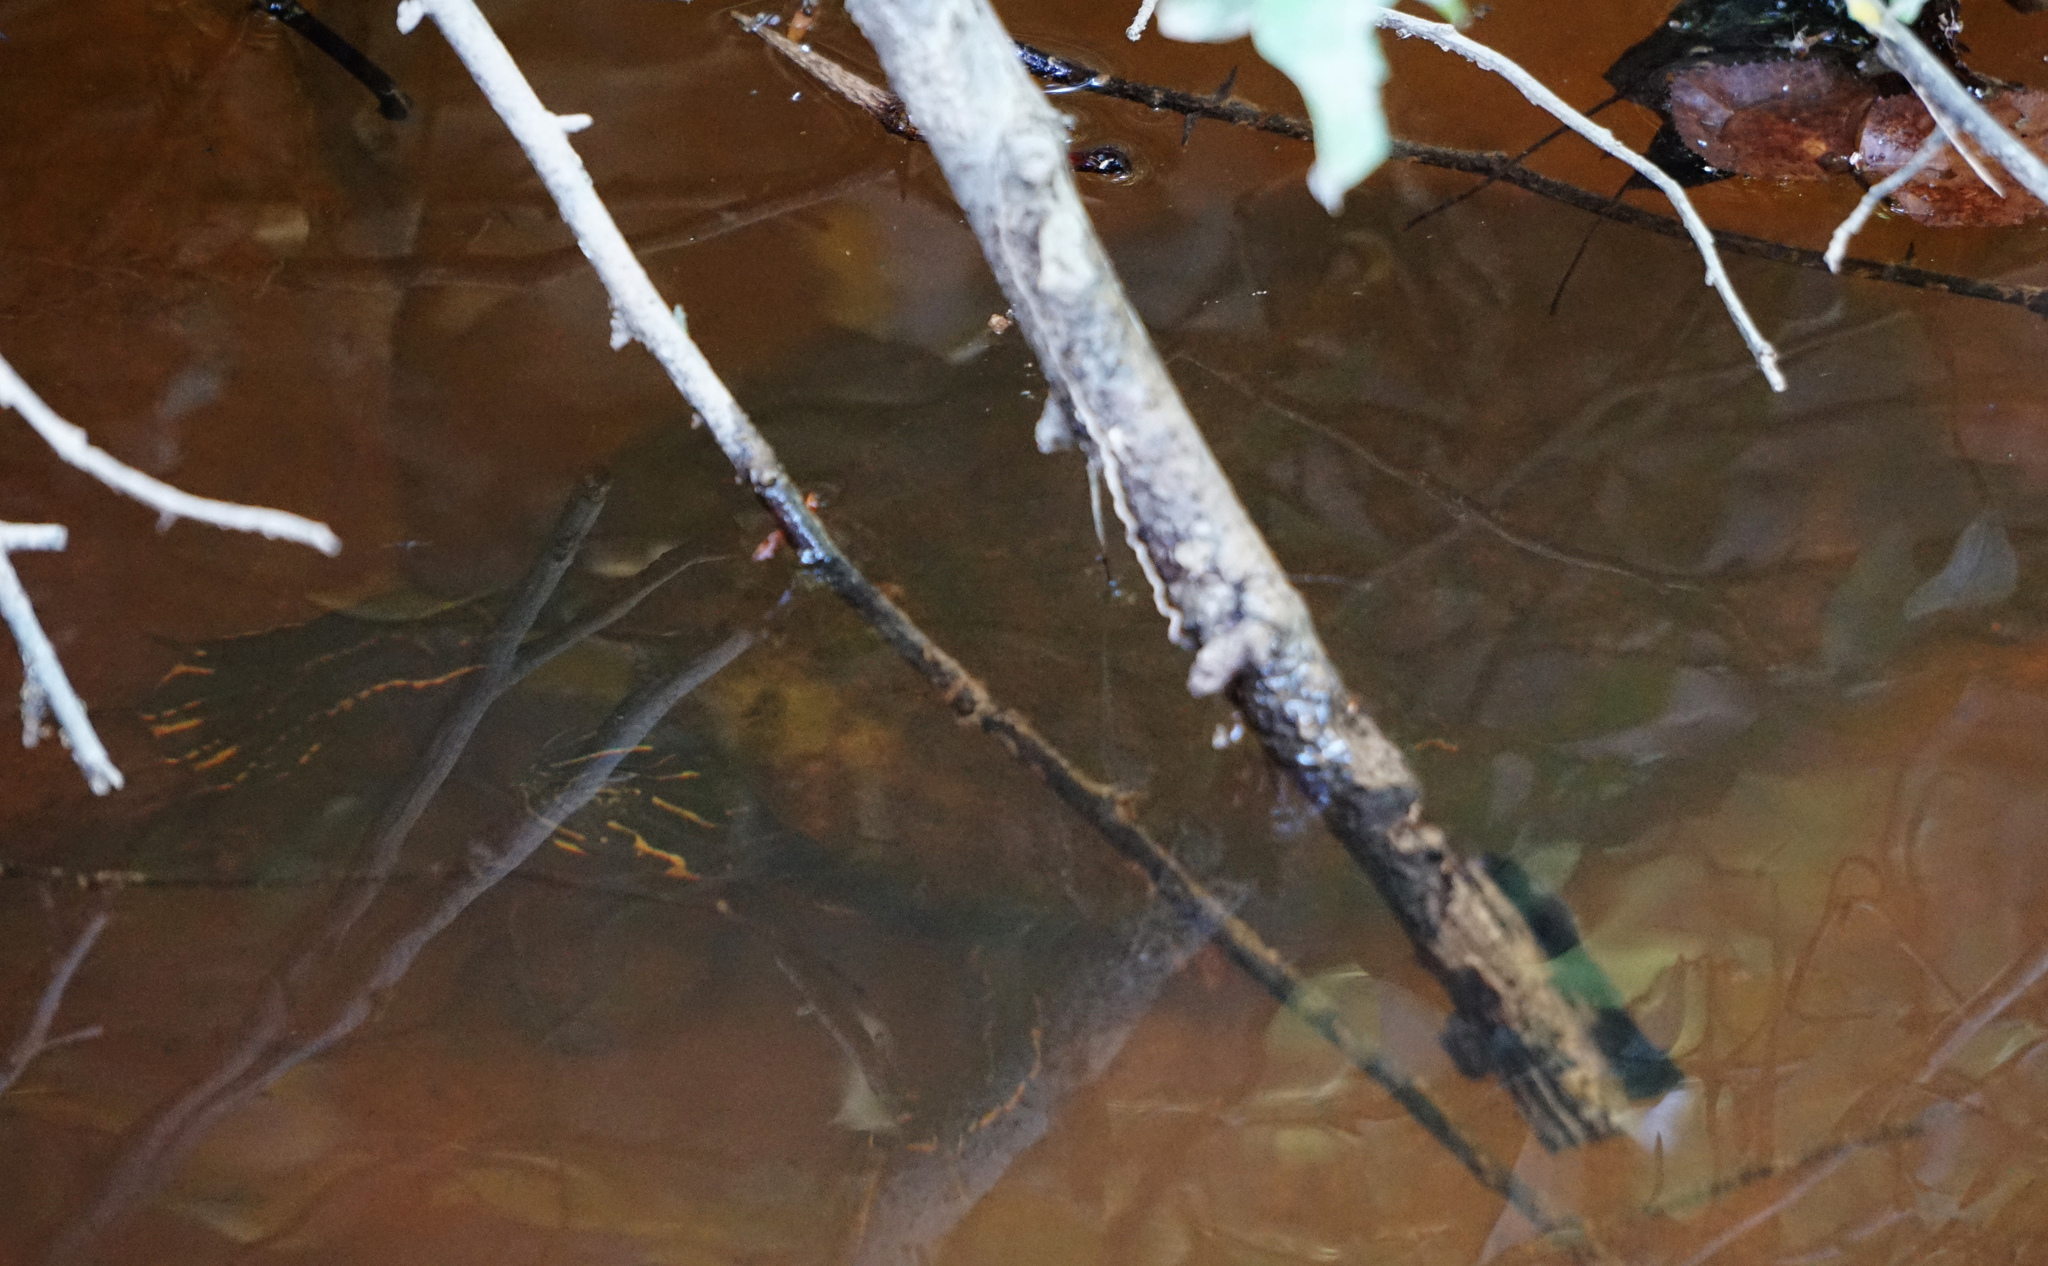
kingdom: Animalia
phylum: Chordata
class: Testudines
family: Emydidae
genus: Pseudemys
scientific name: Pseudemys concinna
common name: Eastern river cooter
